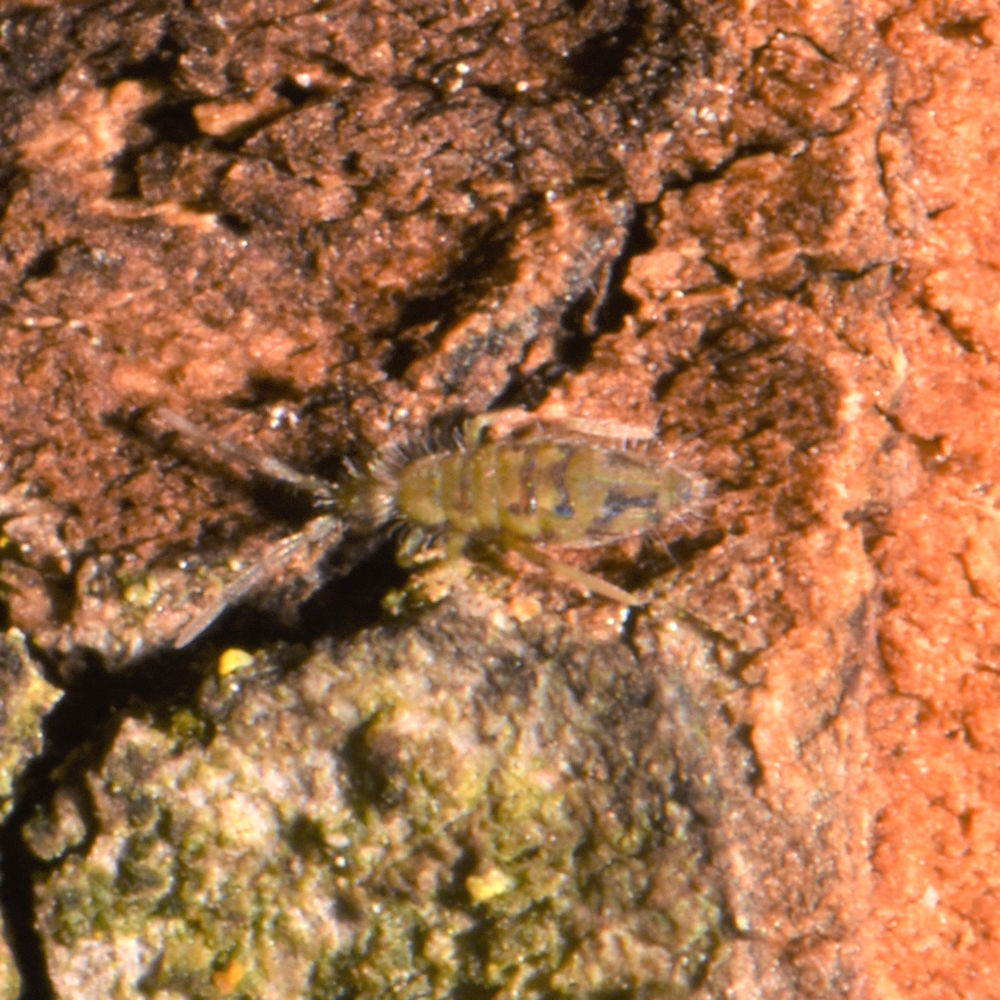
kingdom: Animalia
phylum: Arthropoda
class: Collembola
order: Entomobryomorpha
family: Entomobryidae
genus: Entomobrya
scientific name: Entomobrya nivalis
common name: Cosmopolitan springtail
